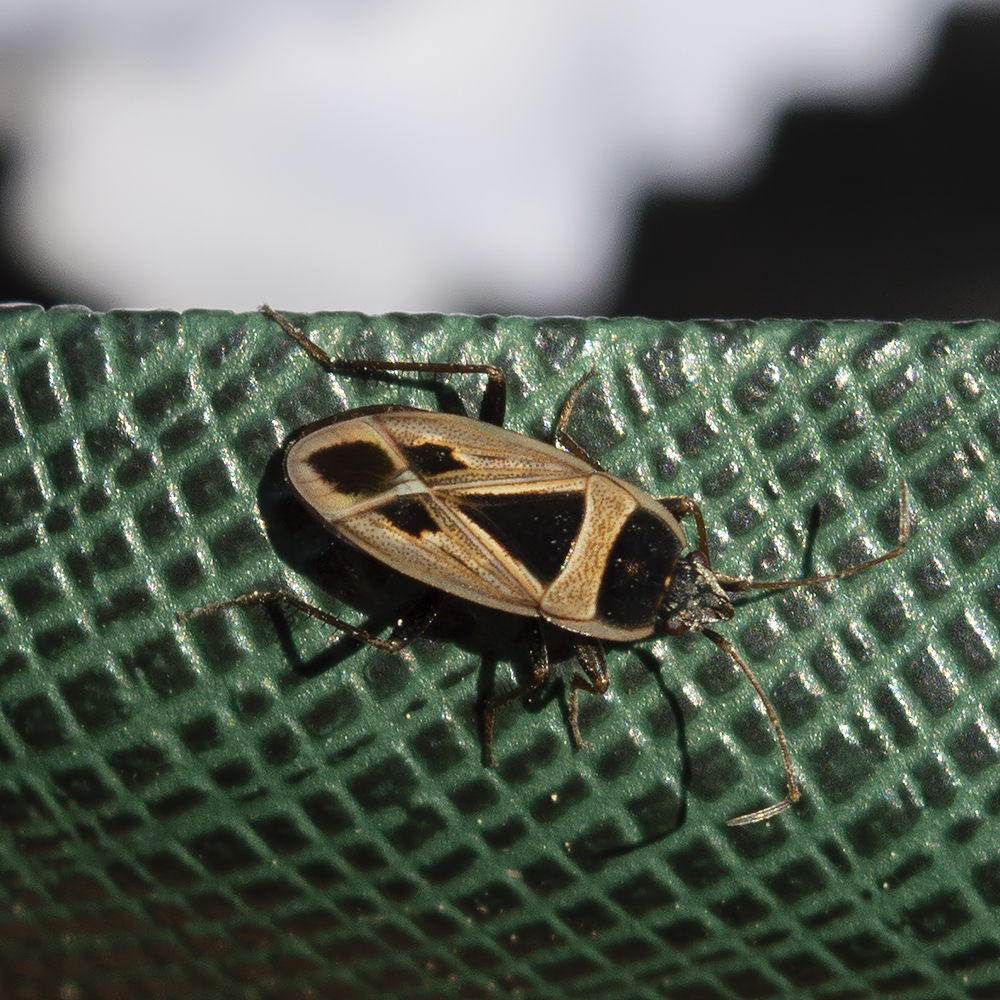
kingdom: Animalia
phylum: Arthropoda
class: Insecta
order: Hemiptera
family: Rhyparochromidae
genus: Xanthochilus
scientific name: Xanthochilus saturnius
